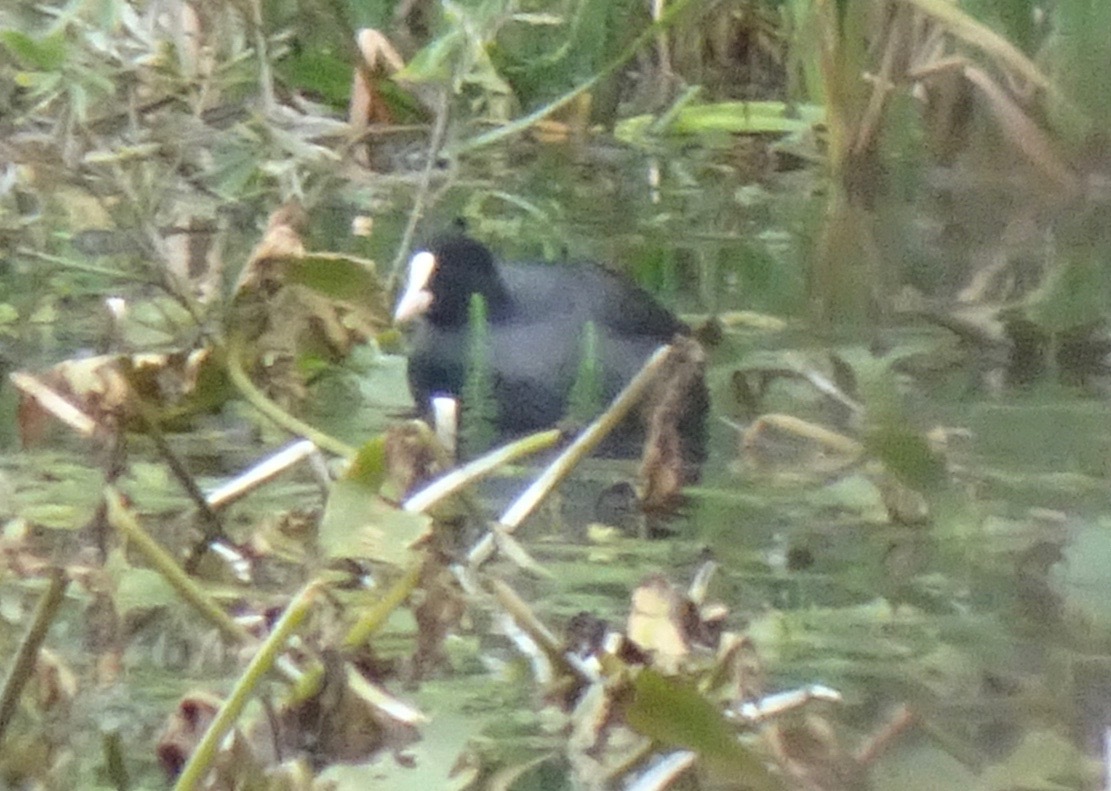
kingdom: Animalia
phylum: Chordata
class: Aves
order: Gruiformes
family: Rallidae
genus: Fulica
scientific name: Fulica atra
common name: Eurasian coot
